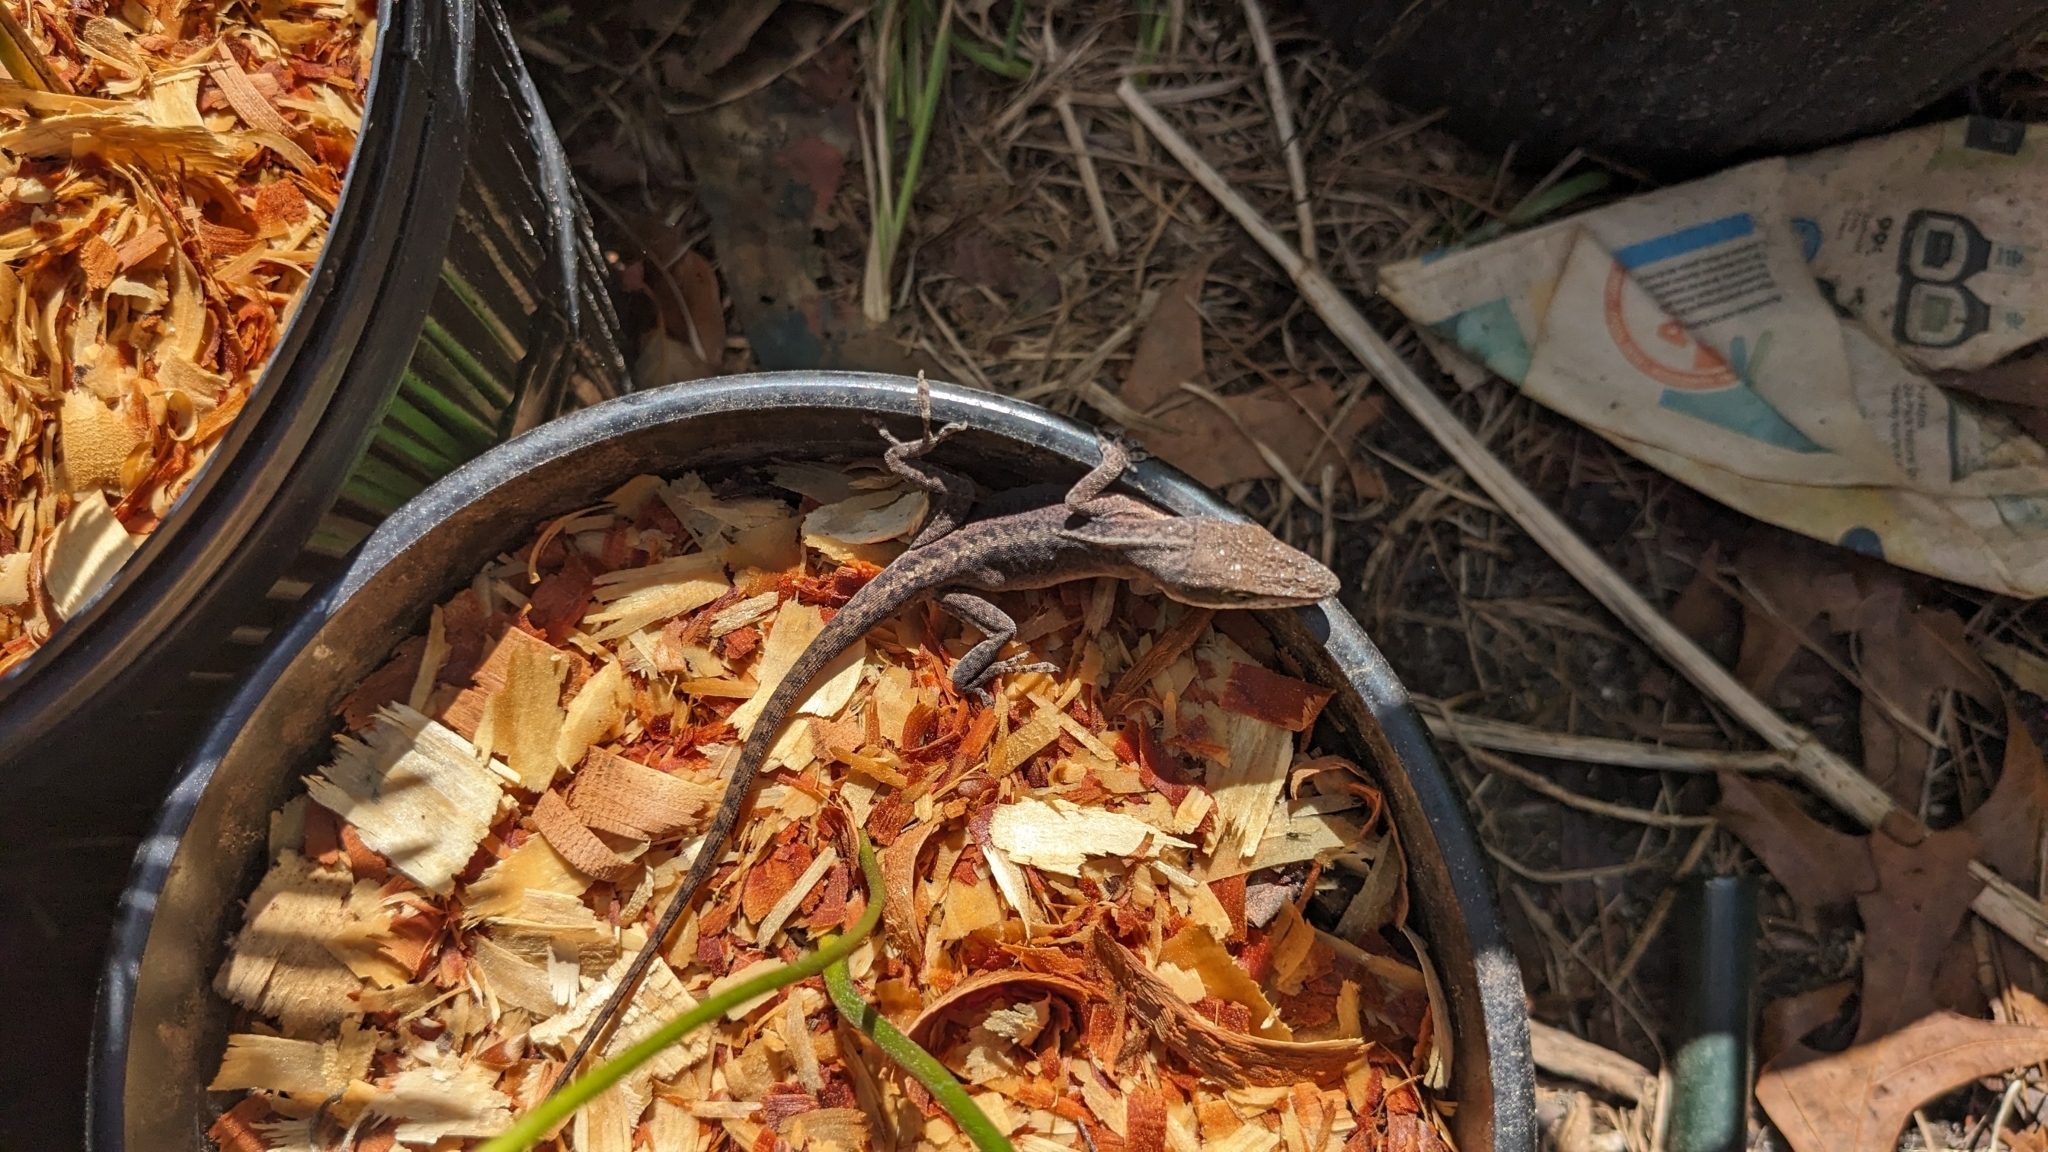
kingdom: Animalia
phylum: Chordata
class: Squamata
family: Dactyloidae
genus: Anolis
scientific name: Anolis carolinensis
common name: Green anole
